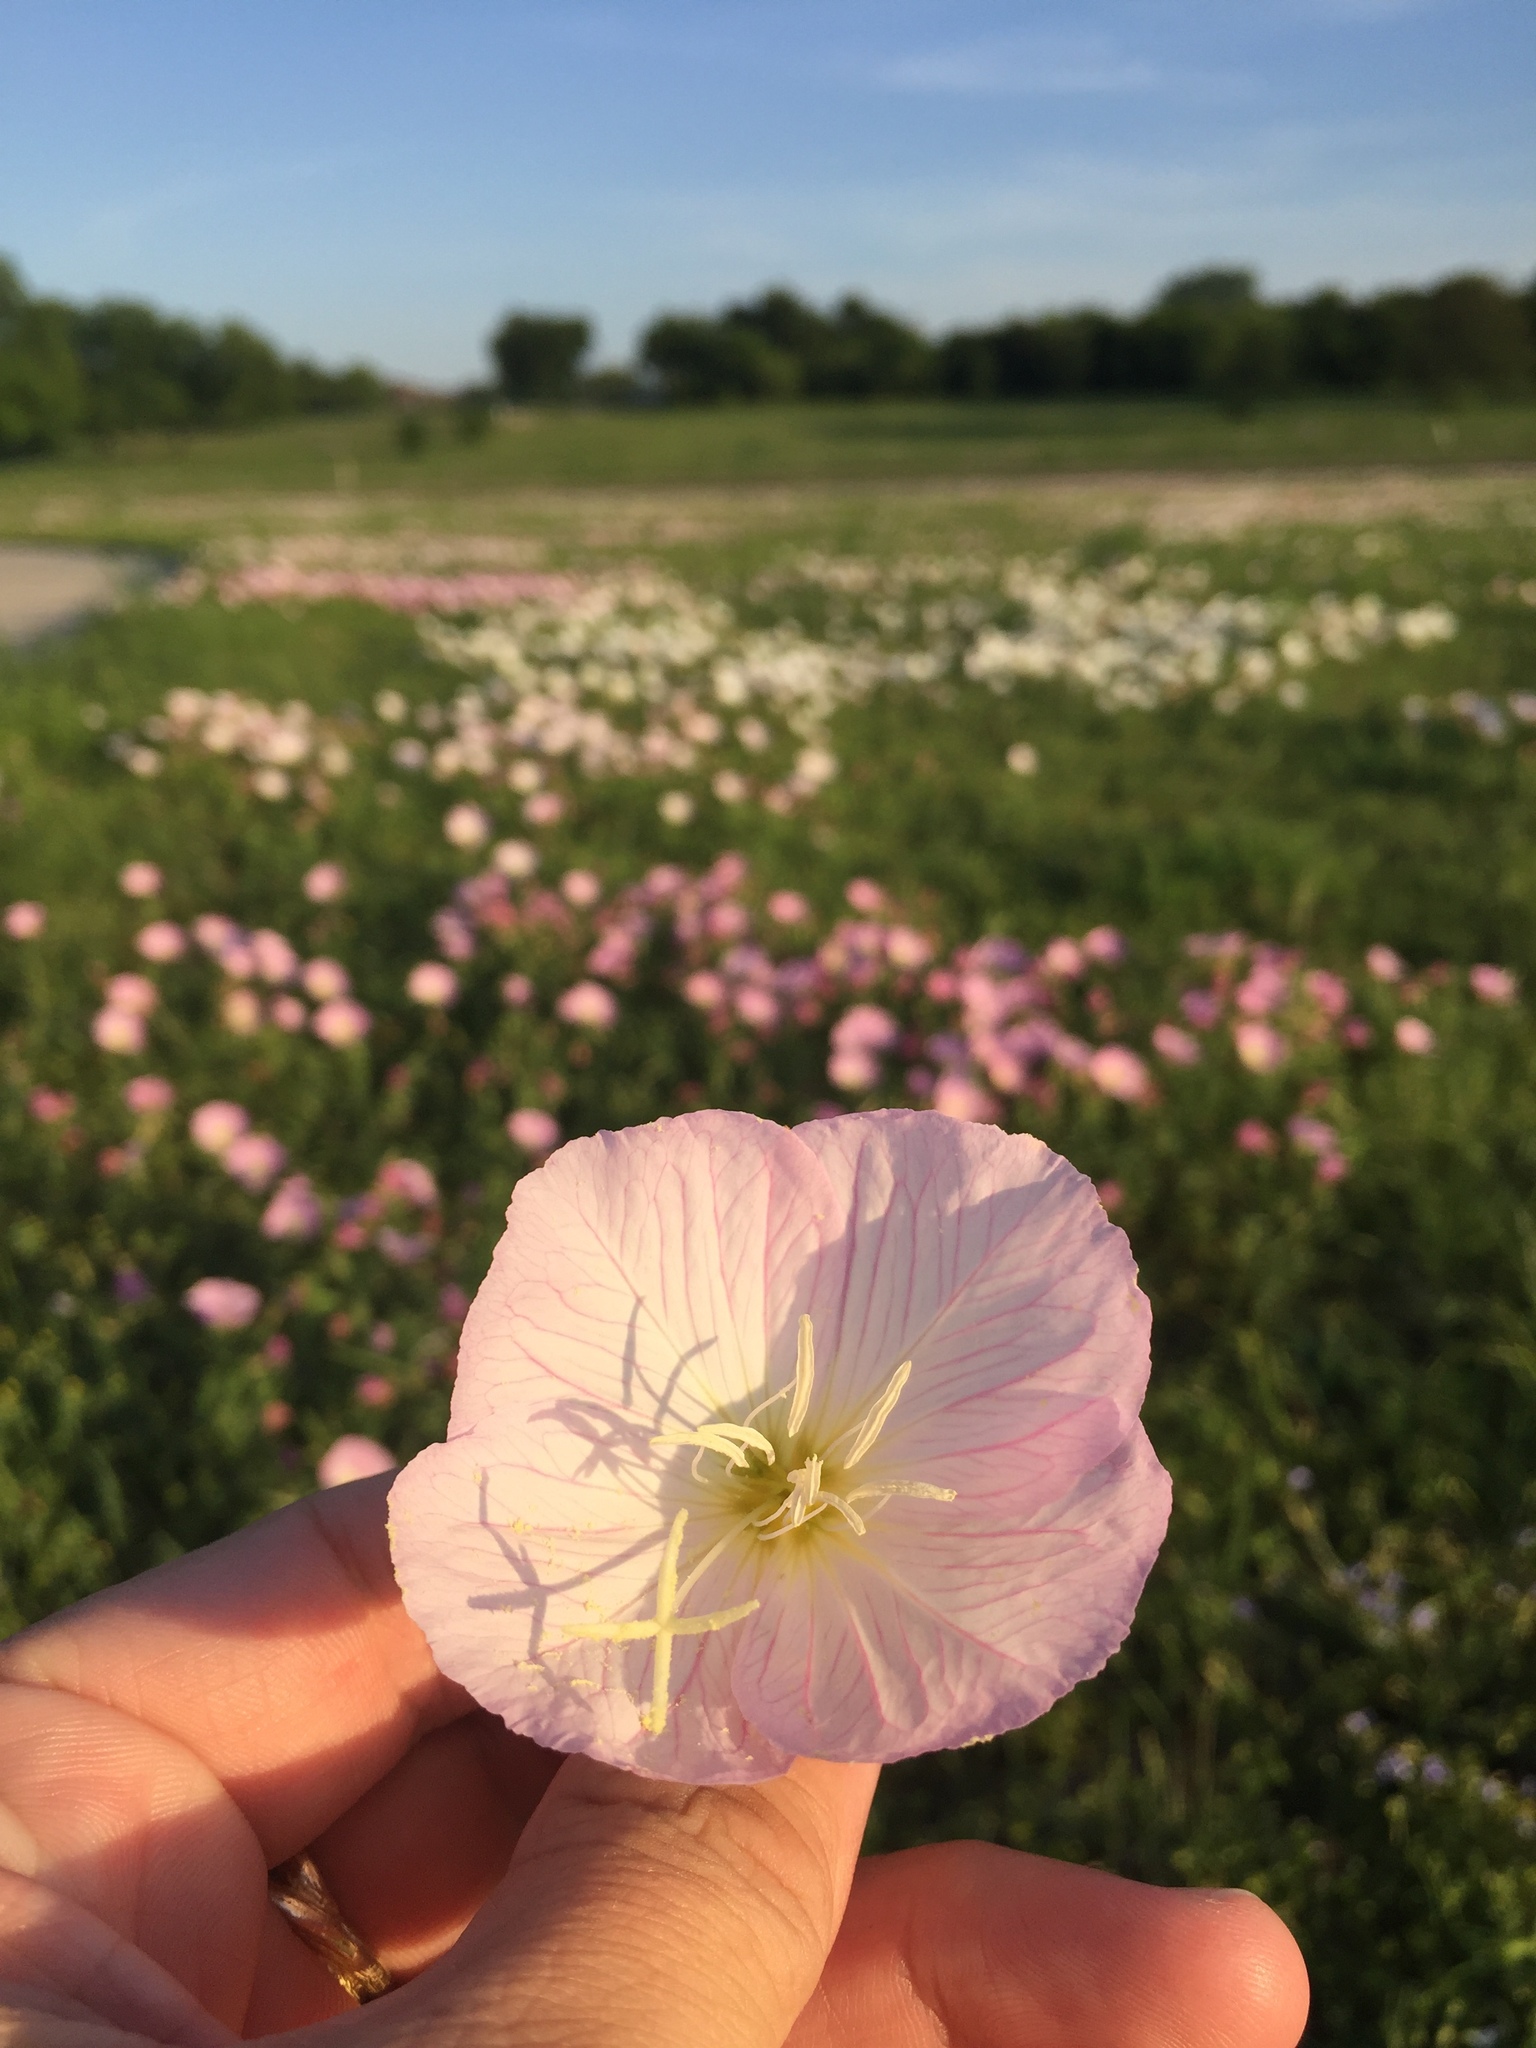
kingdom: Plantae
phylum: Tracheophyta
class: Magnoliopsida
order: Myrtales
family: Onagraceae
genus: Oenothera
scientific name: Oenothera speciosa
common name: White evening-primrose
